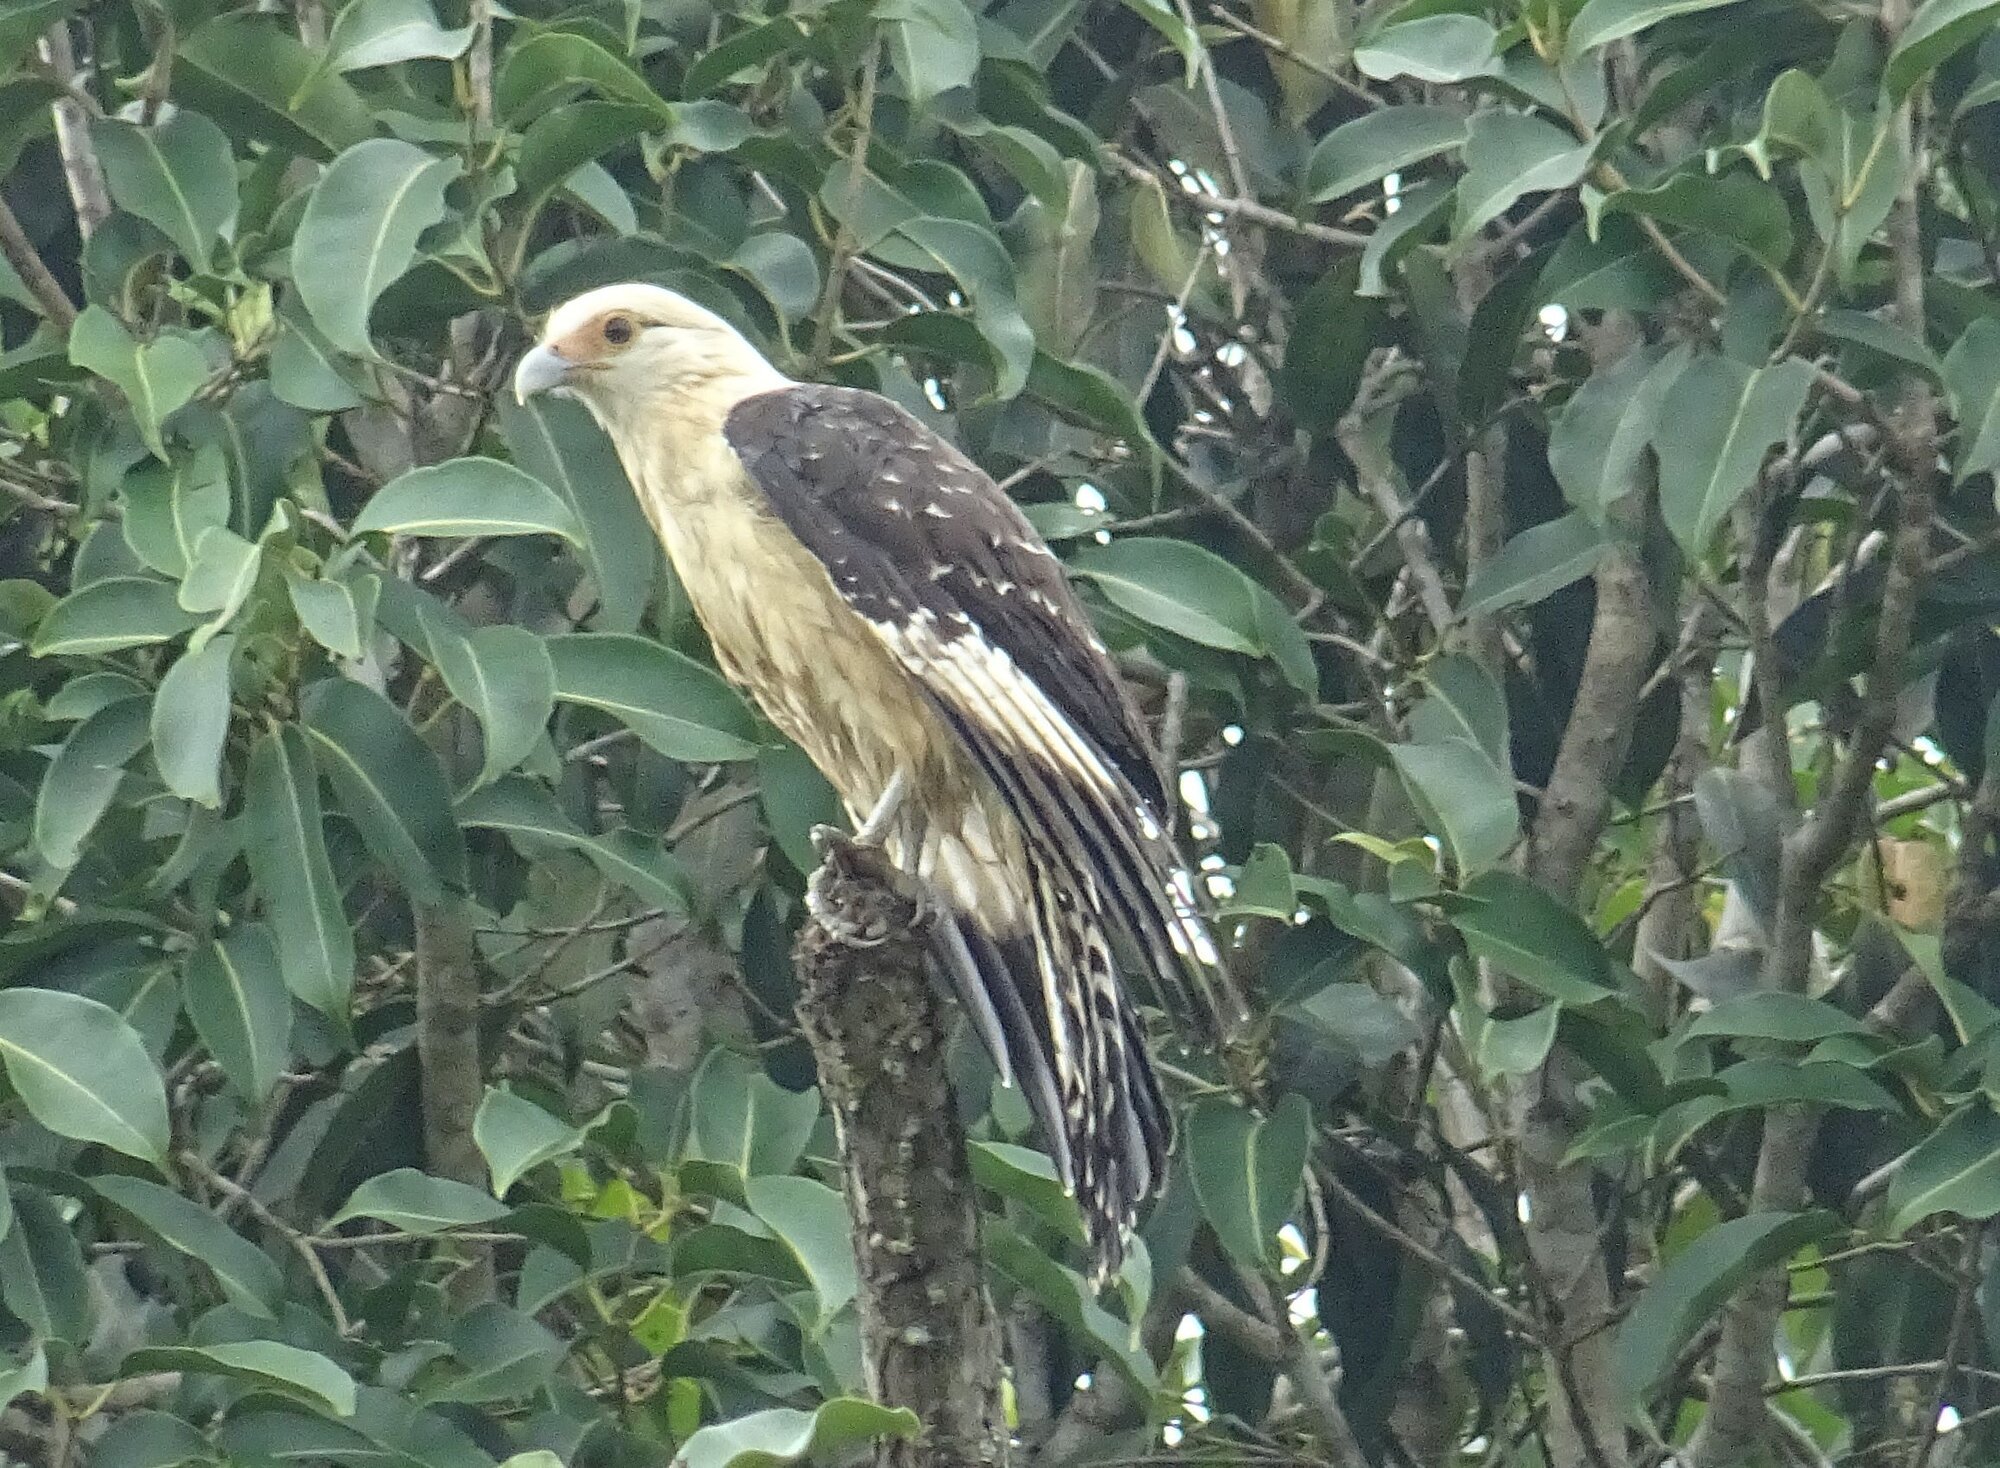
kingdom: Animalia
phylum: Chordata
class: Aves
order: Falconiformes
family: Falconidae
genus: Daptrius
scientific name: Daptrius
